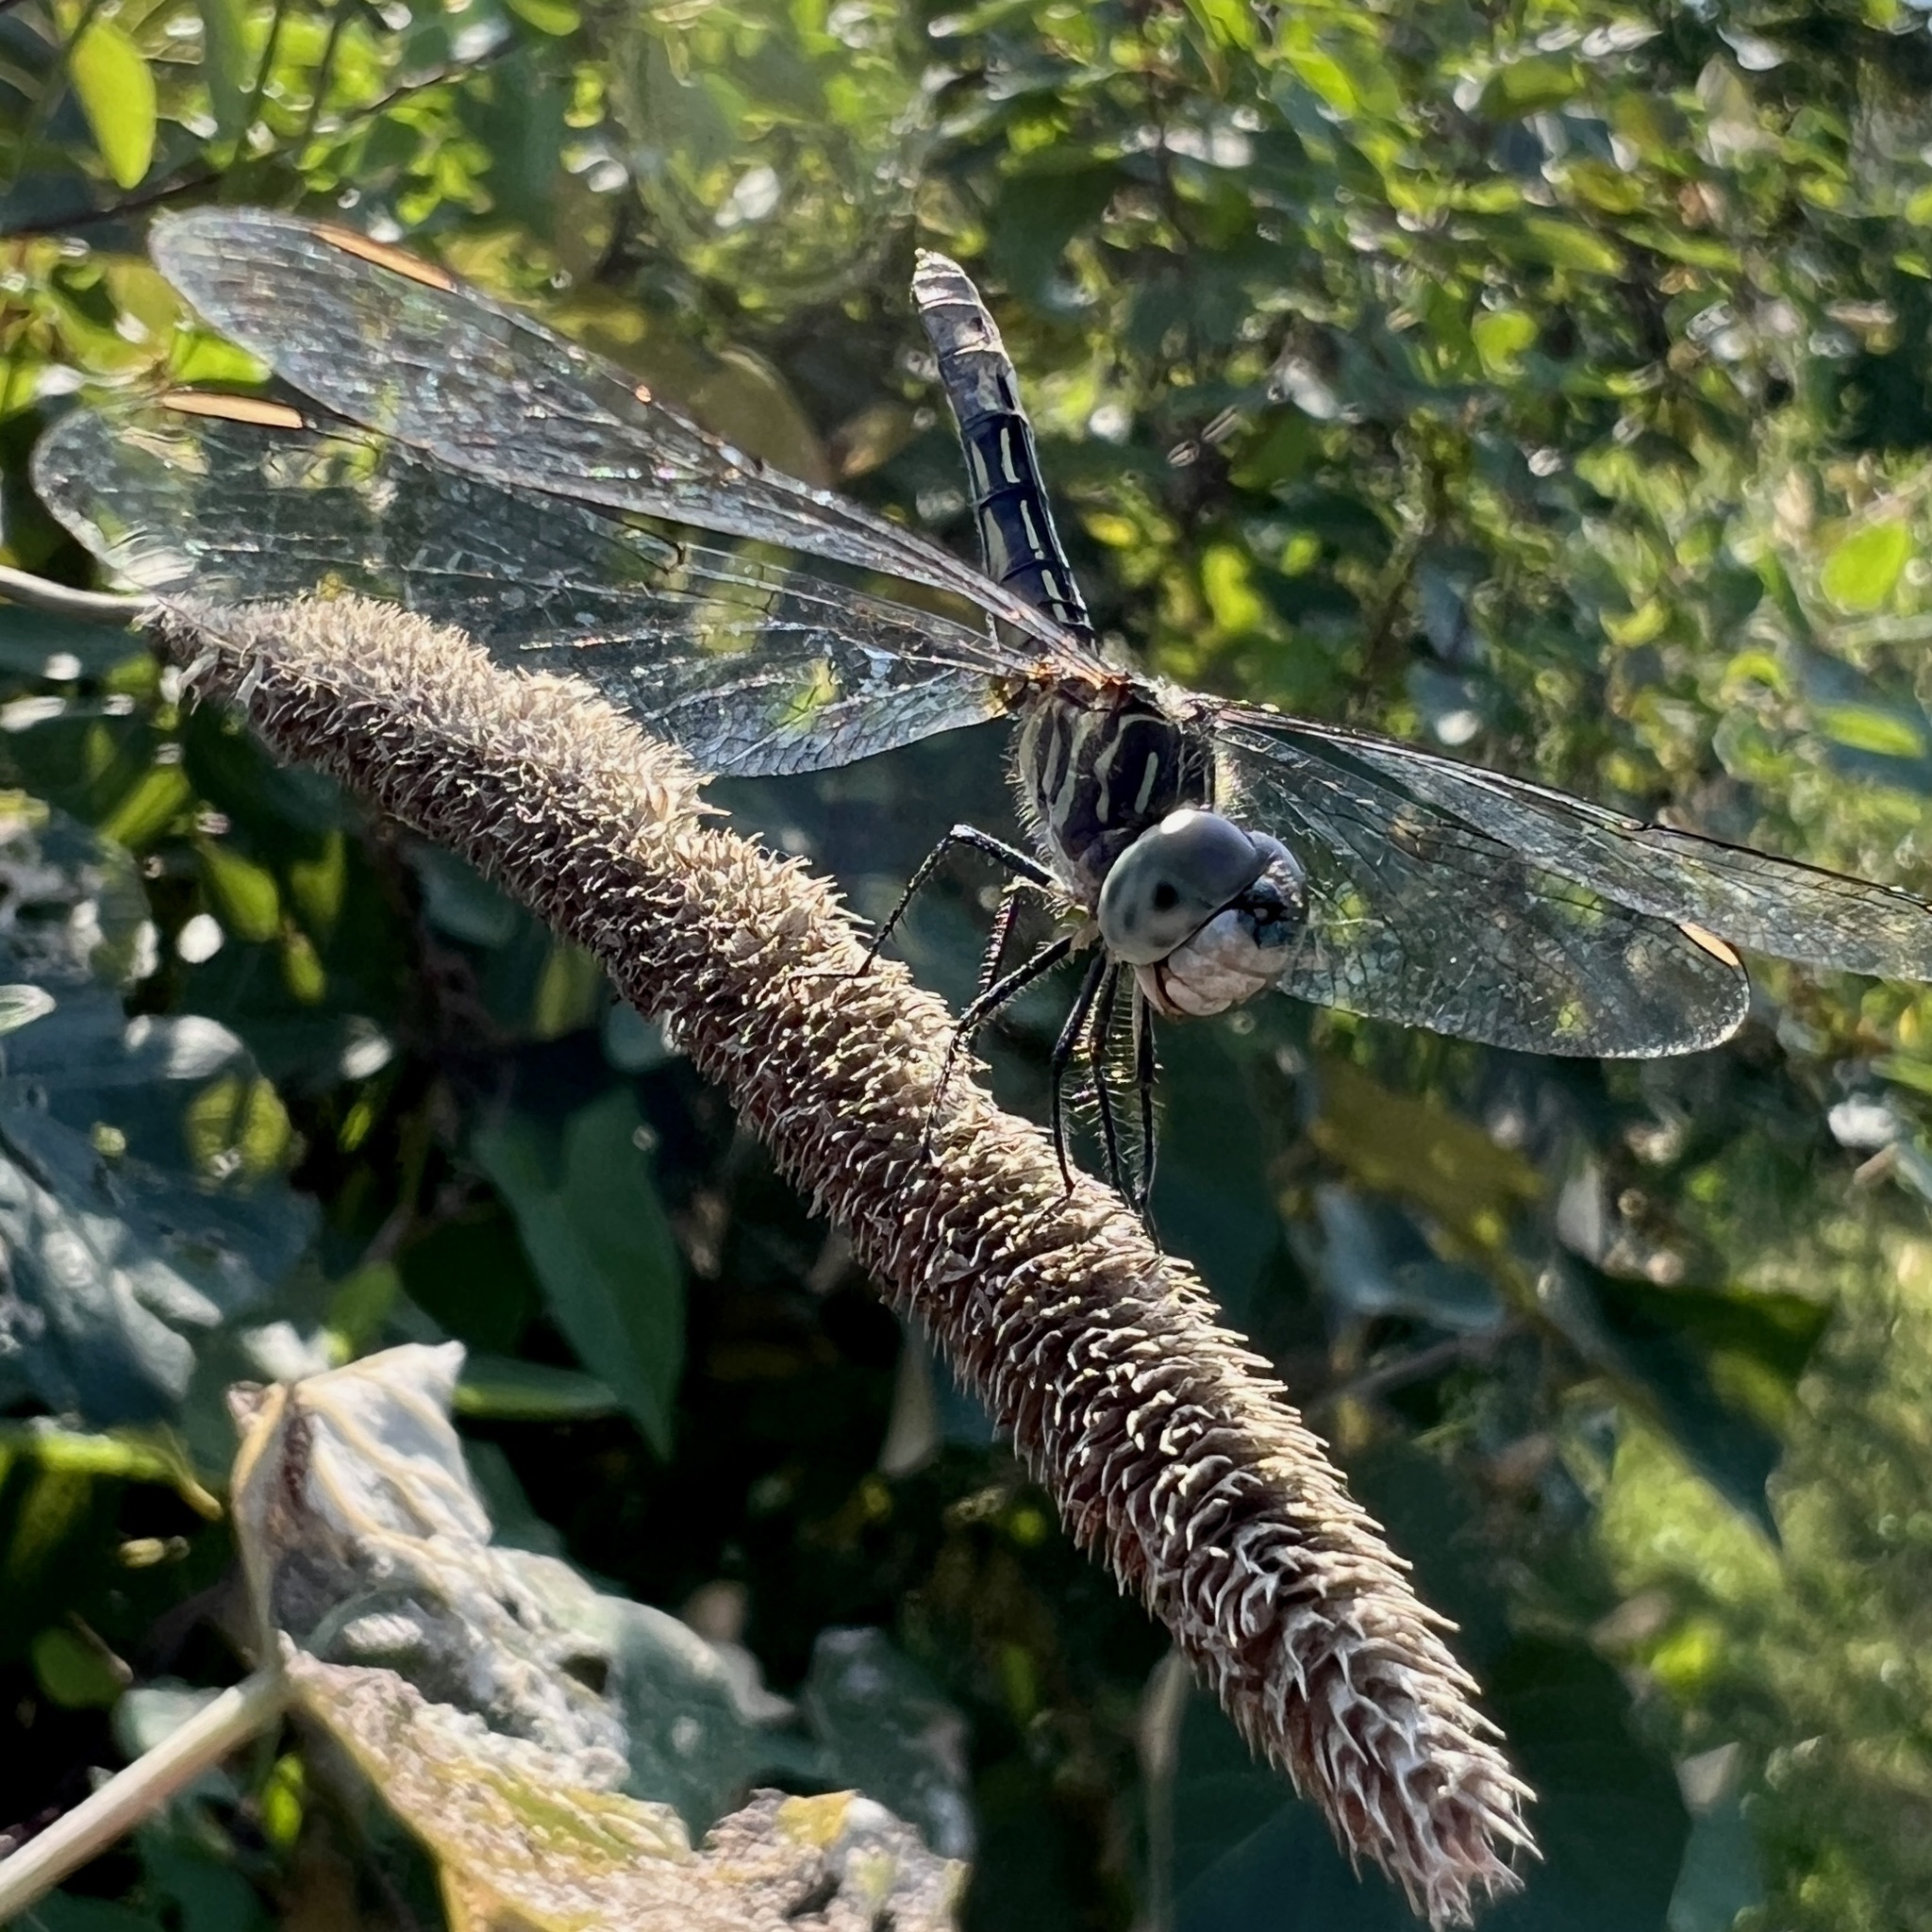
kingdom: Animalia
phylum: Arthropoda
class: Insecta
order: Odonata
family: Libellulidae
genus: Pachydiplax
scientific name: Pachydiplax longipennis
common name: Blue dasher
